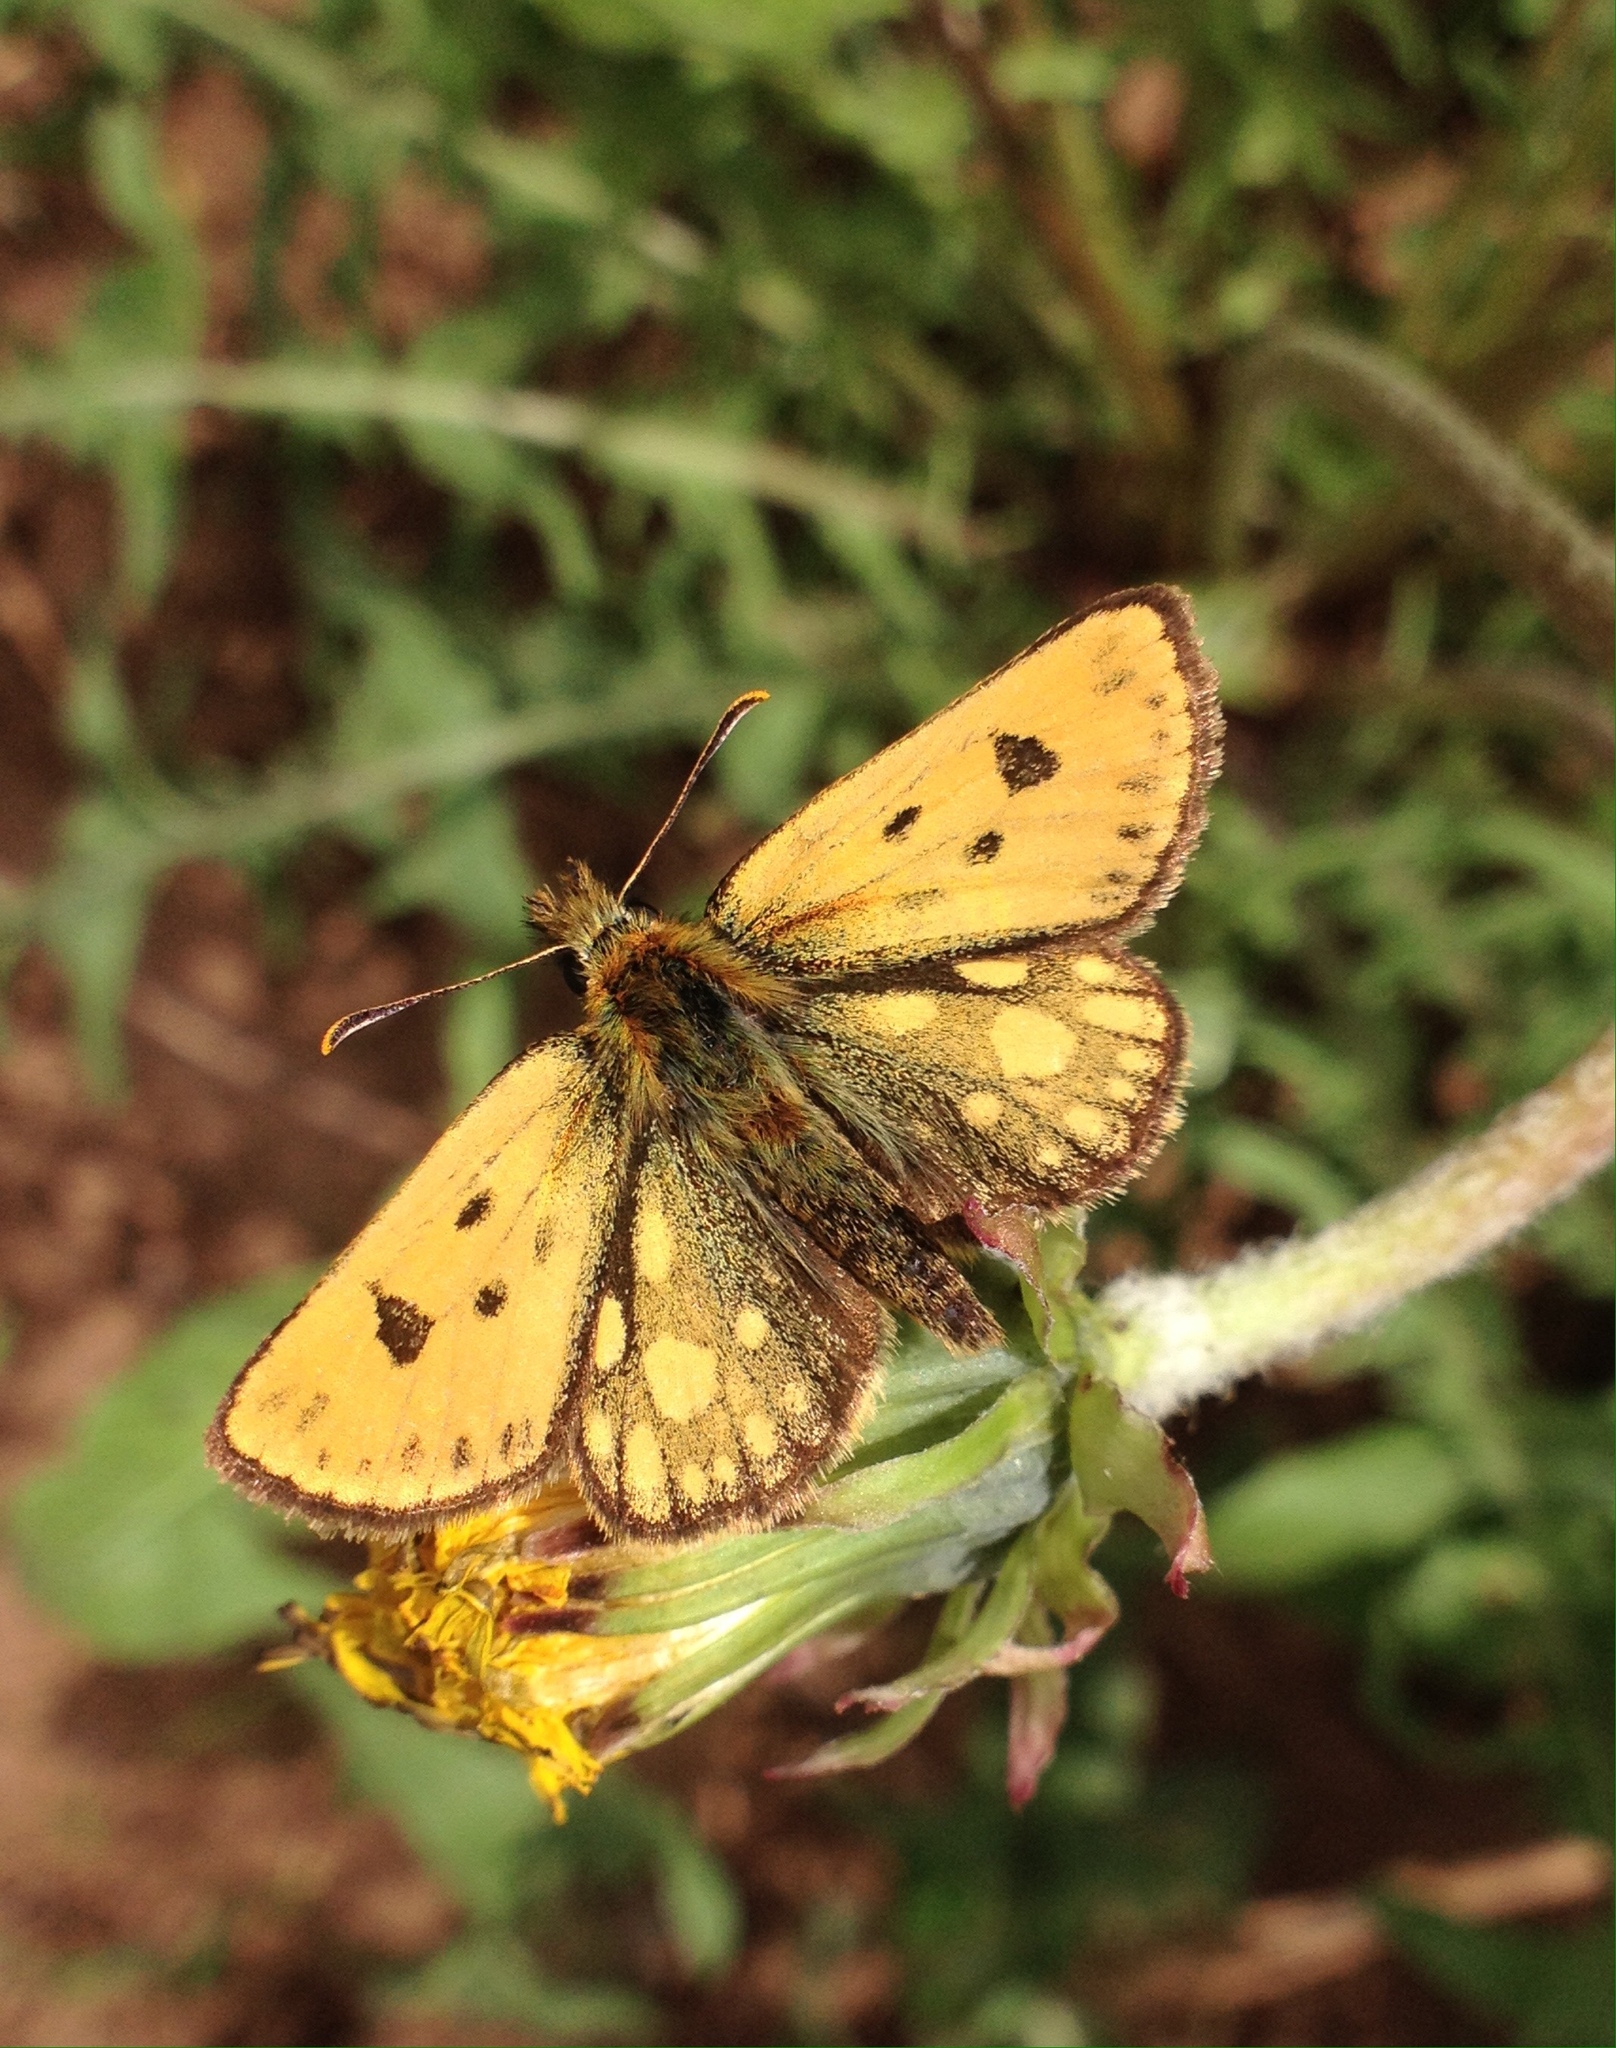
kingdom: Animalia
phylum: Arthropoda
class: Insecta
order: Lepidoptera
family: Hesperiidae
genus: Carterocephalus
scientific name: Carterocephalus silvicola
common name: Northern chequered skipper
